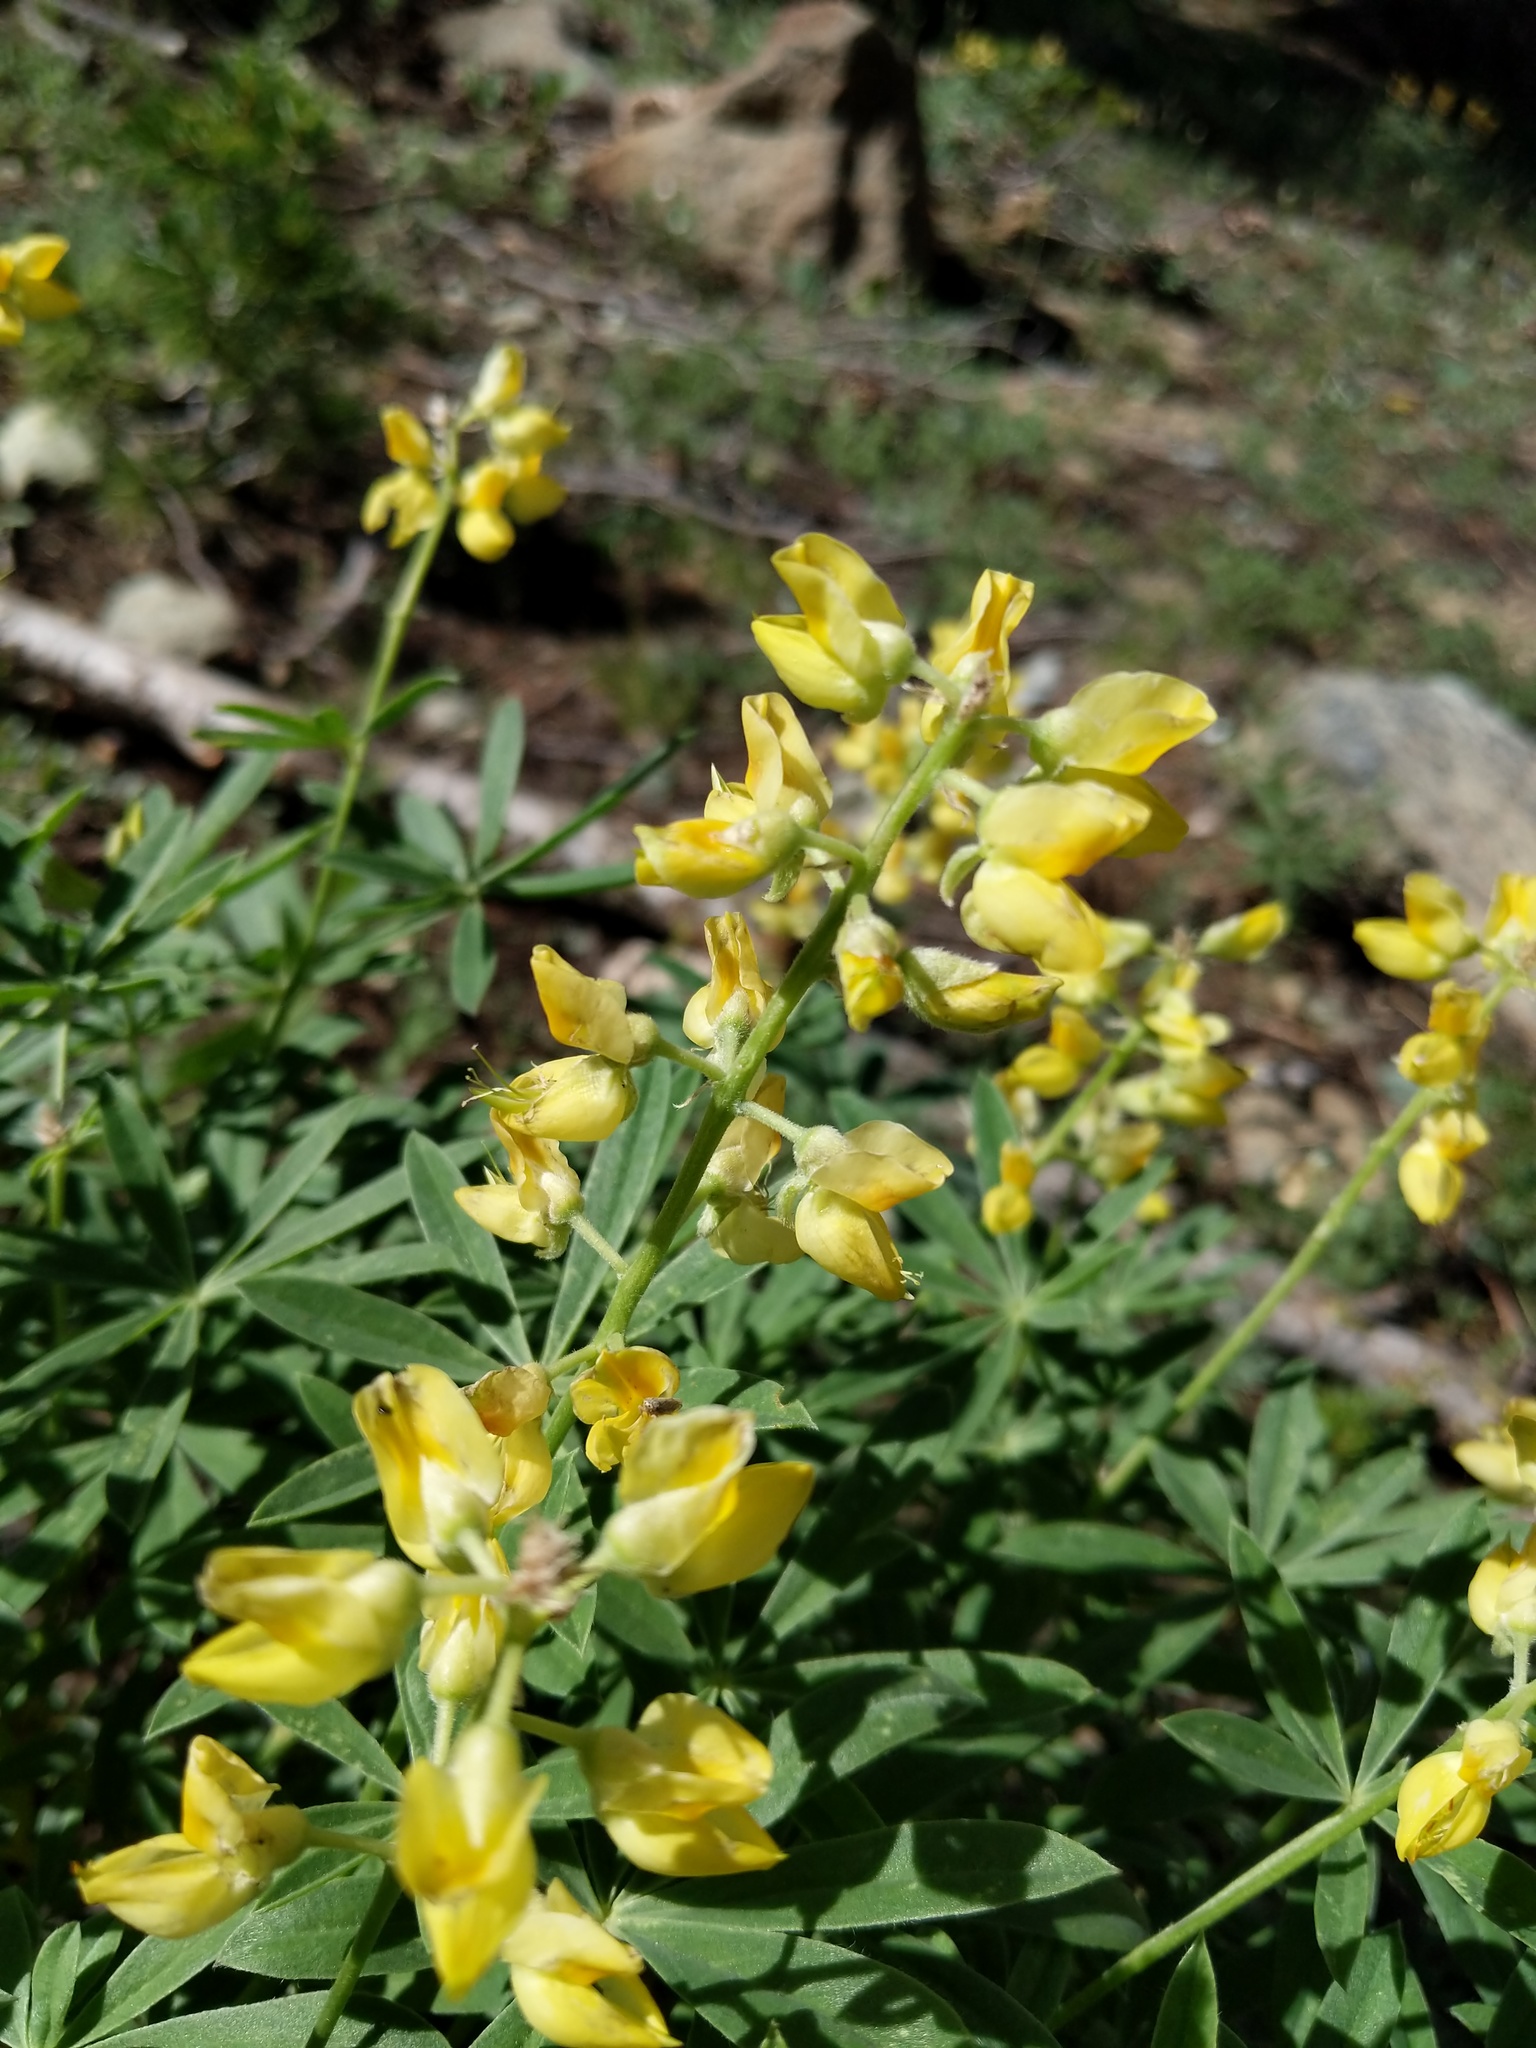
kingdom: Plantae
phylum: Tracheophyta
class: Magnoliopsida
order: Fabales
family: Fabaceae
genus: Lupinus
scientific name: Lupinus croceus
